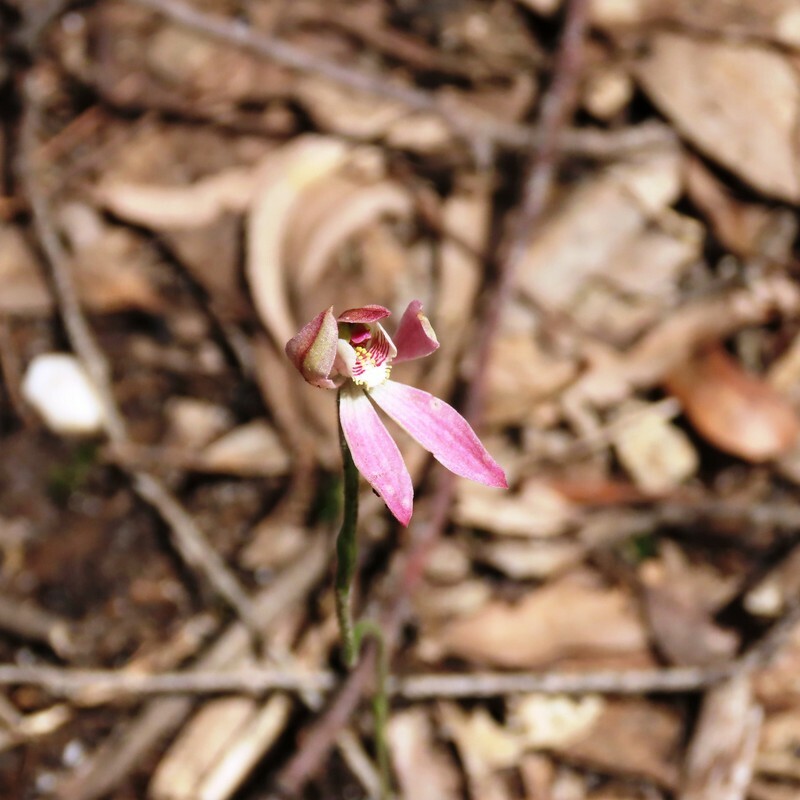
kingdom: Plantae
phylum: Tracheophyta
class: Liliopsida
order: Asparagales
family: Orchidaceae
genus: Caladenia
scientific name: Caladenia carnea
